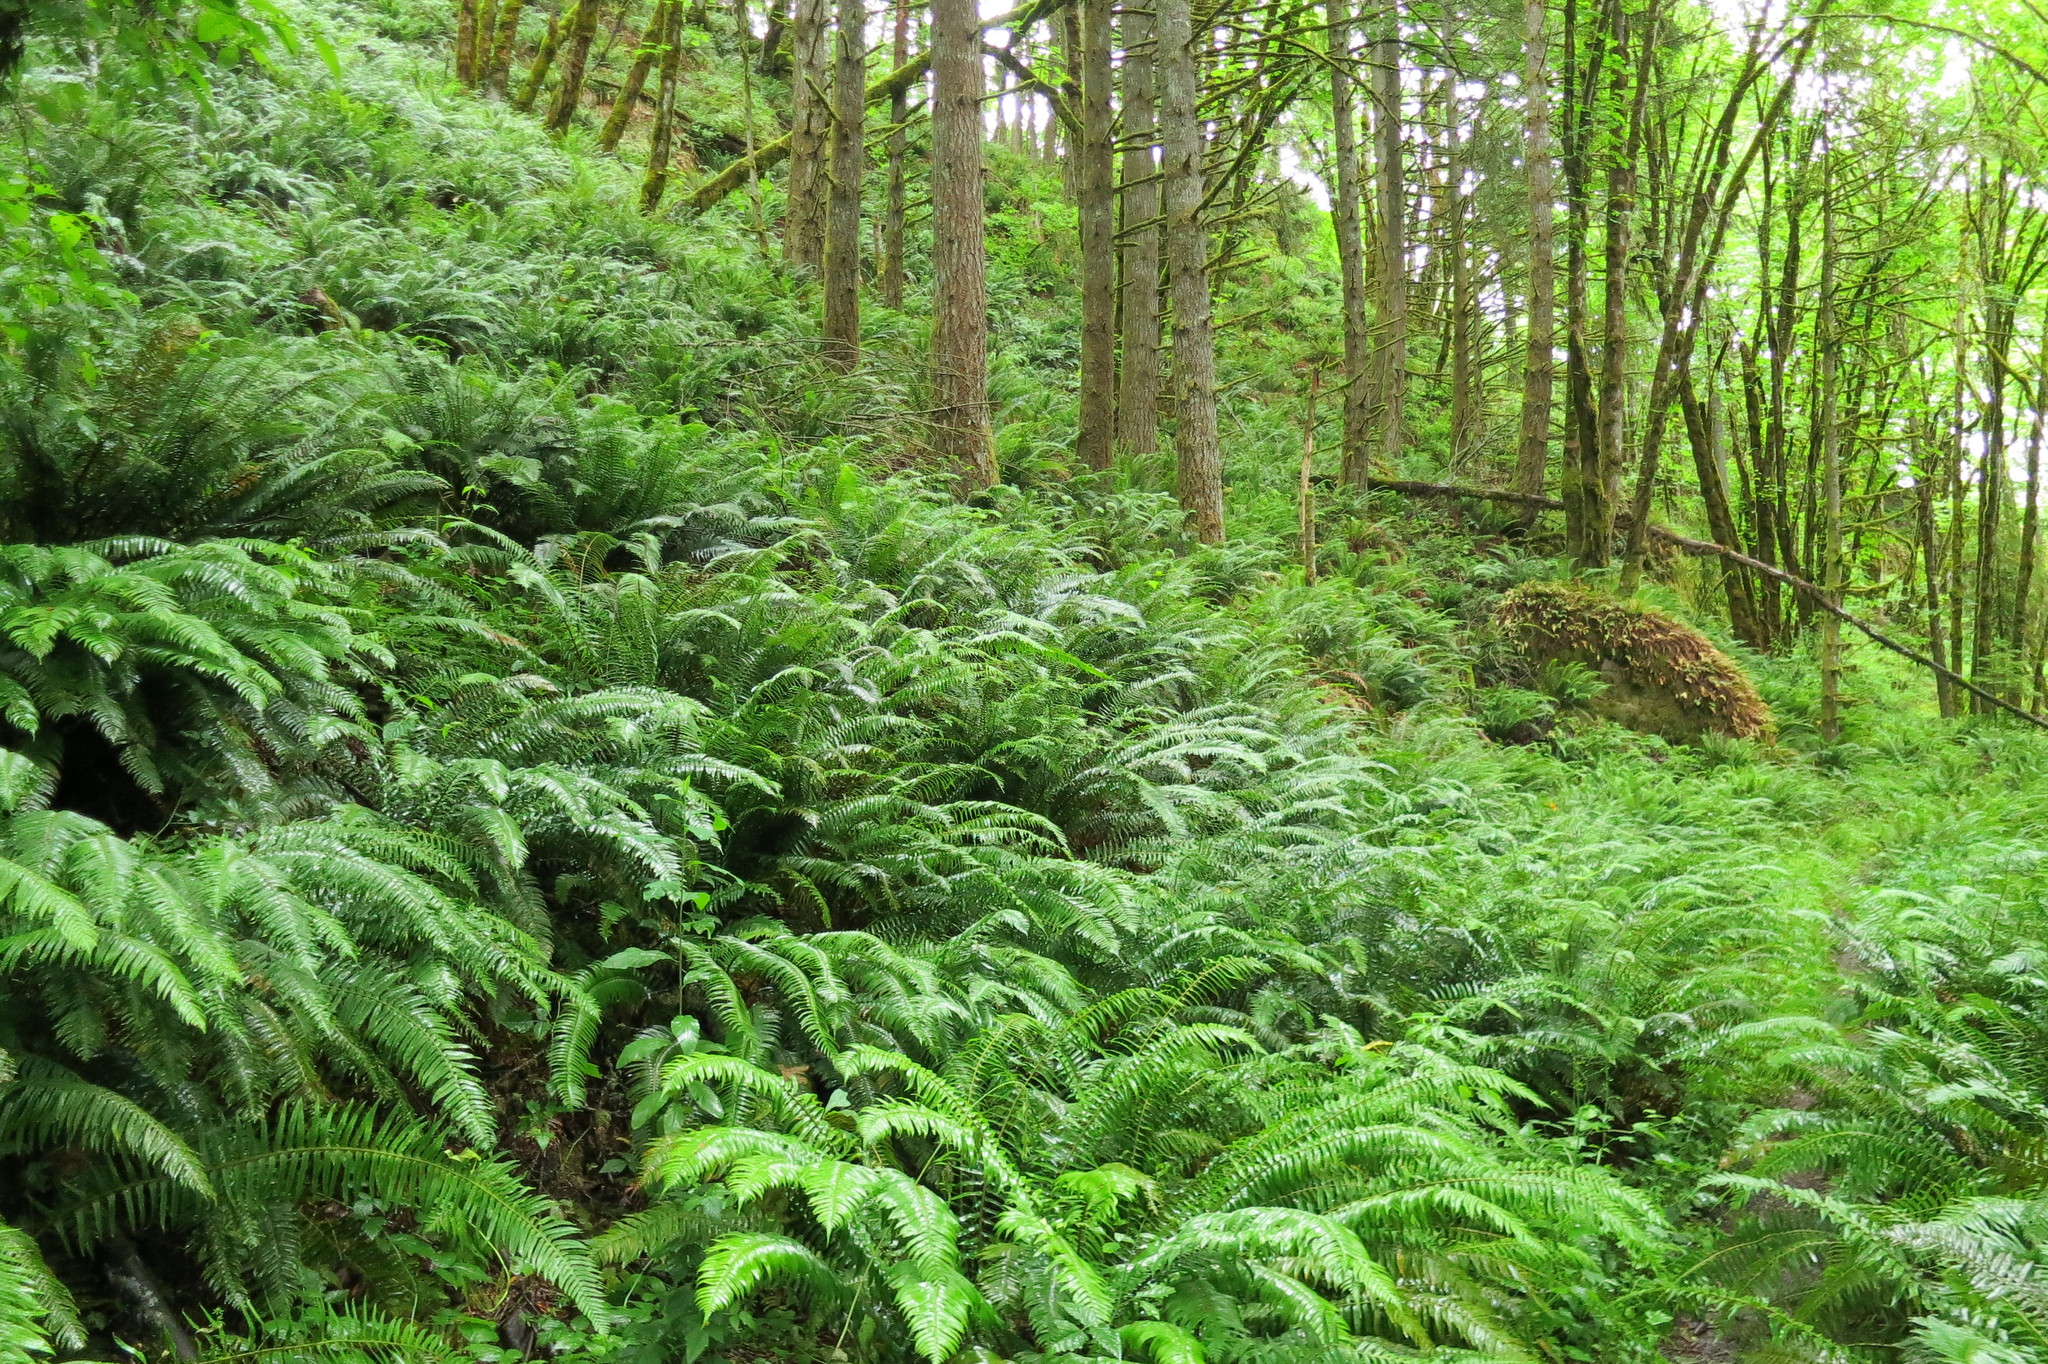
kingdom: Plantae
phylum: Tracheophyta
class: Polypodiopsida
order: Ophioglossales
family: Ophioglossaceae
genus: Botrypus
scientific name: Botrypus virginianus
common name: Common grapefern
